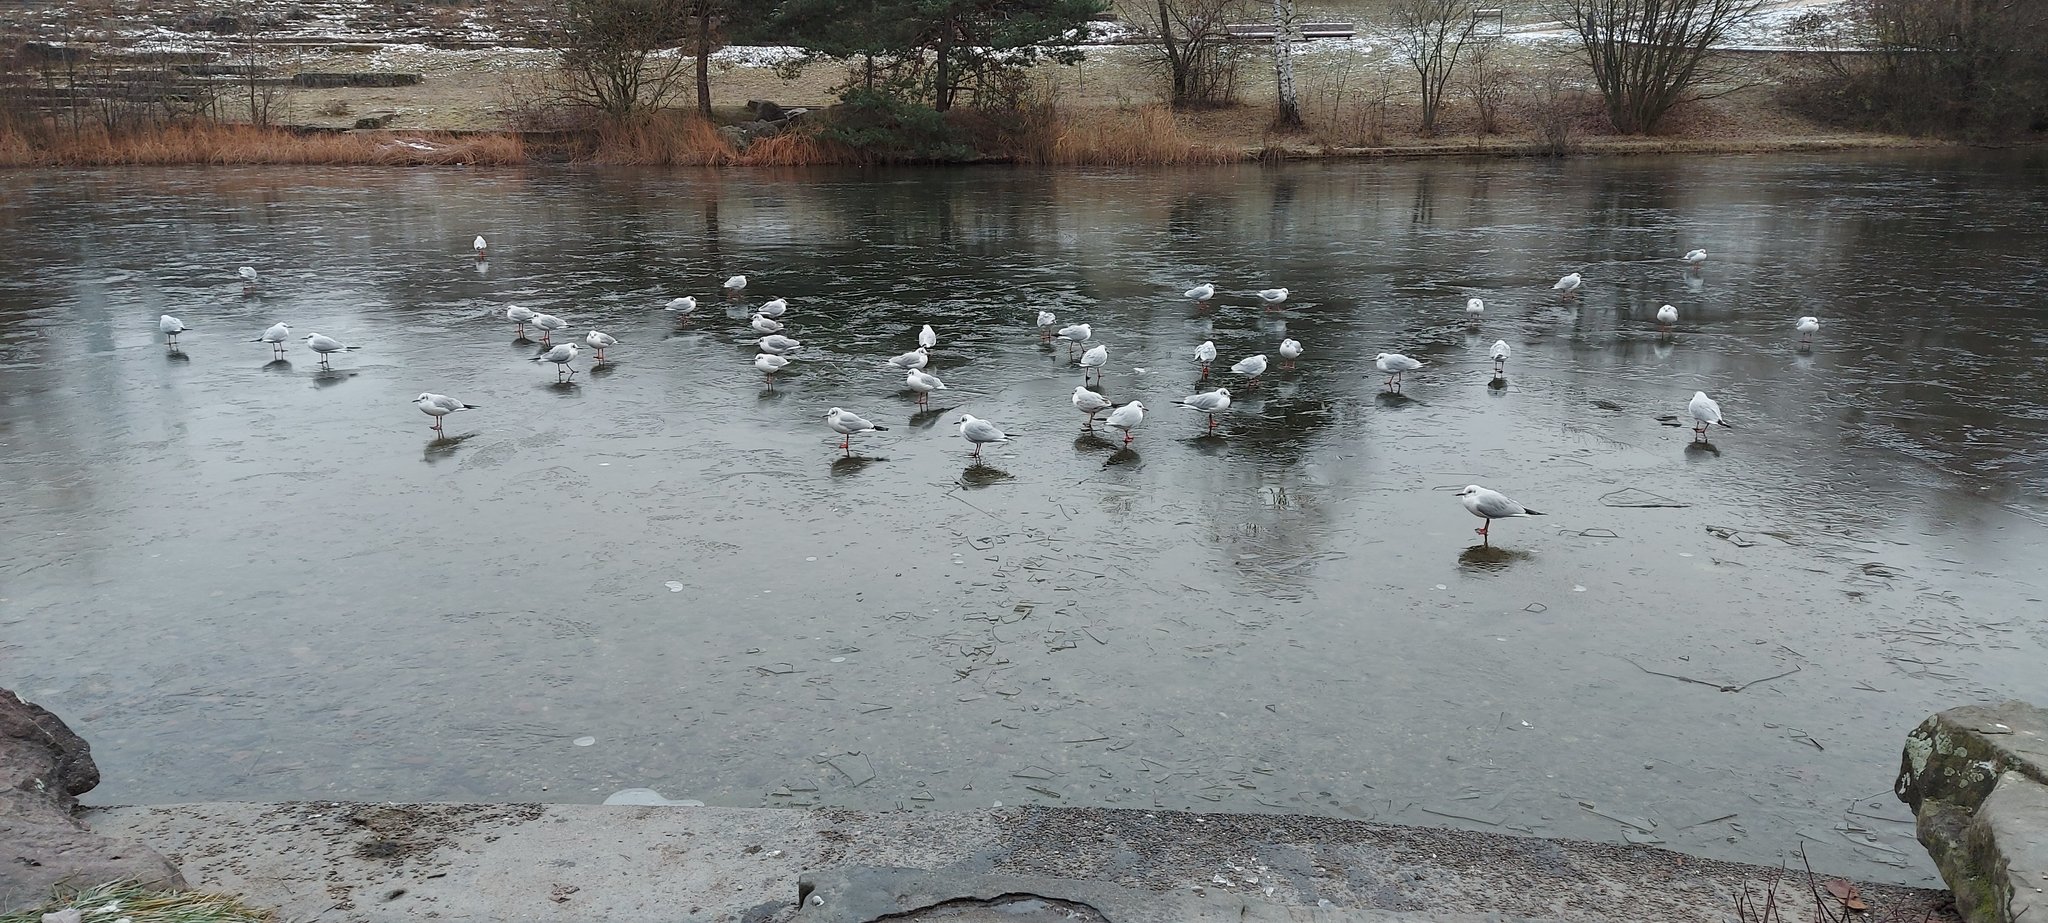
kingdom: Animalia
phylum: Chordata
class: Aves
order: Charadriiformes
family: Laridae
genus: Chroicocephalus
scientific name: Chroicocephalus ridibundus
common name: Black-headed gull
